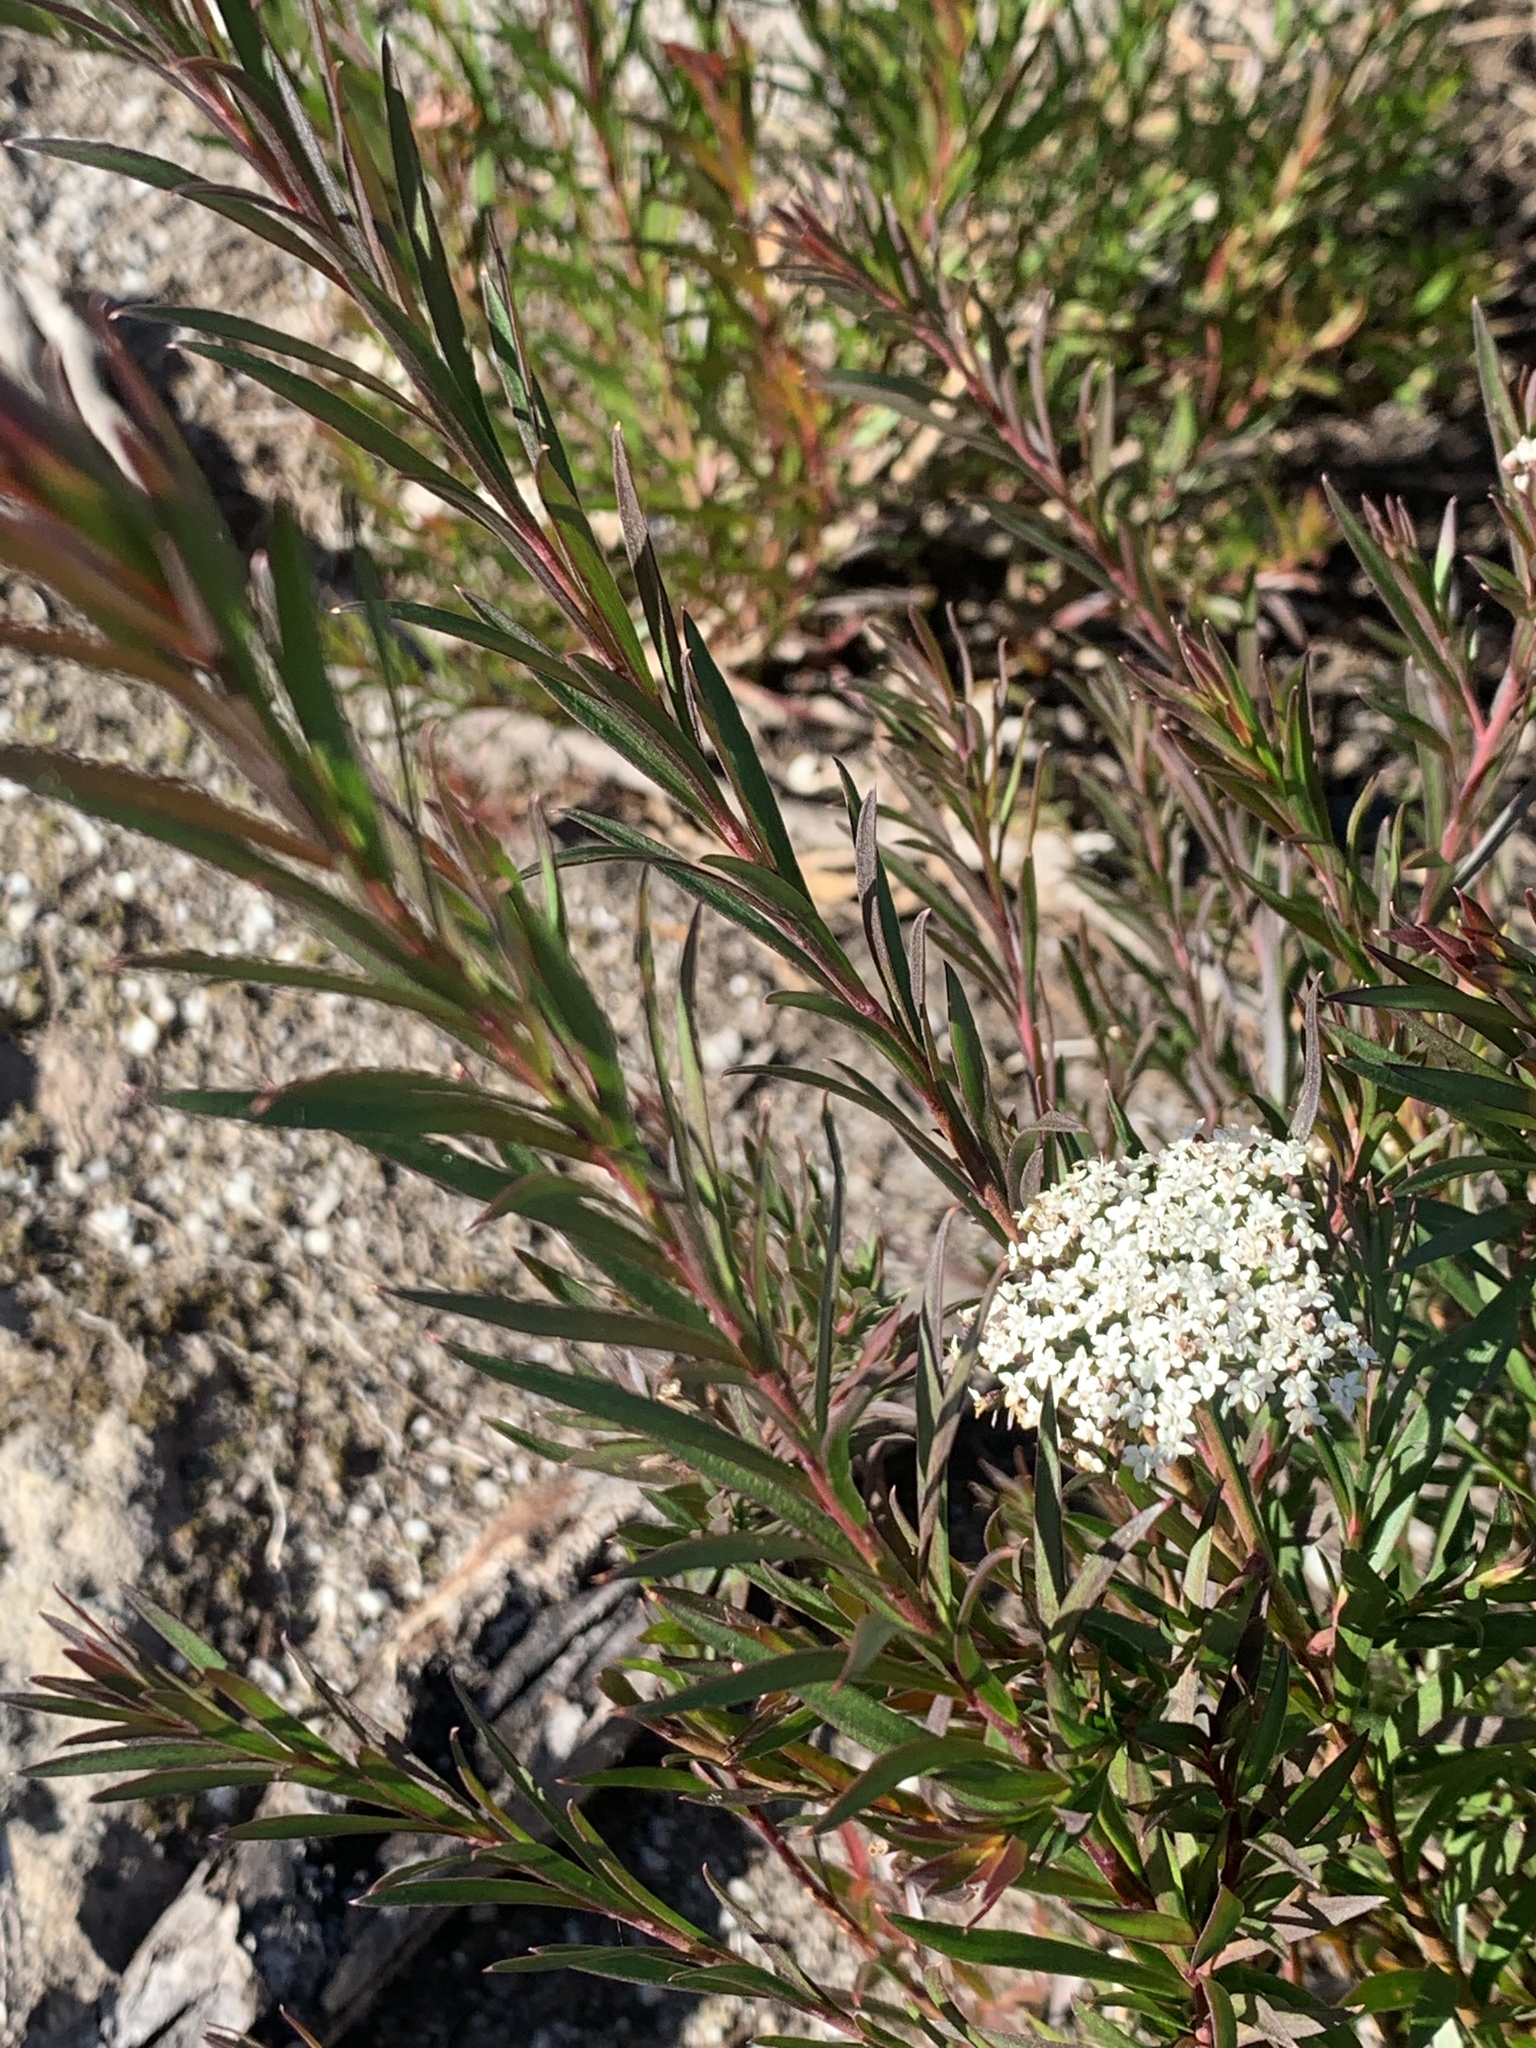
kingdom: Plantae
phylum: Tracheophyta
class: Magnoliopsida
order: Apiales
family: Apiaceae
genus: Platysace
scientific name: Platysace lanceolata
